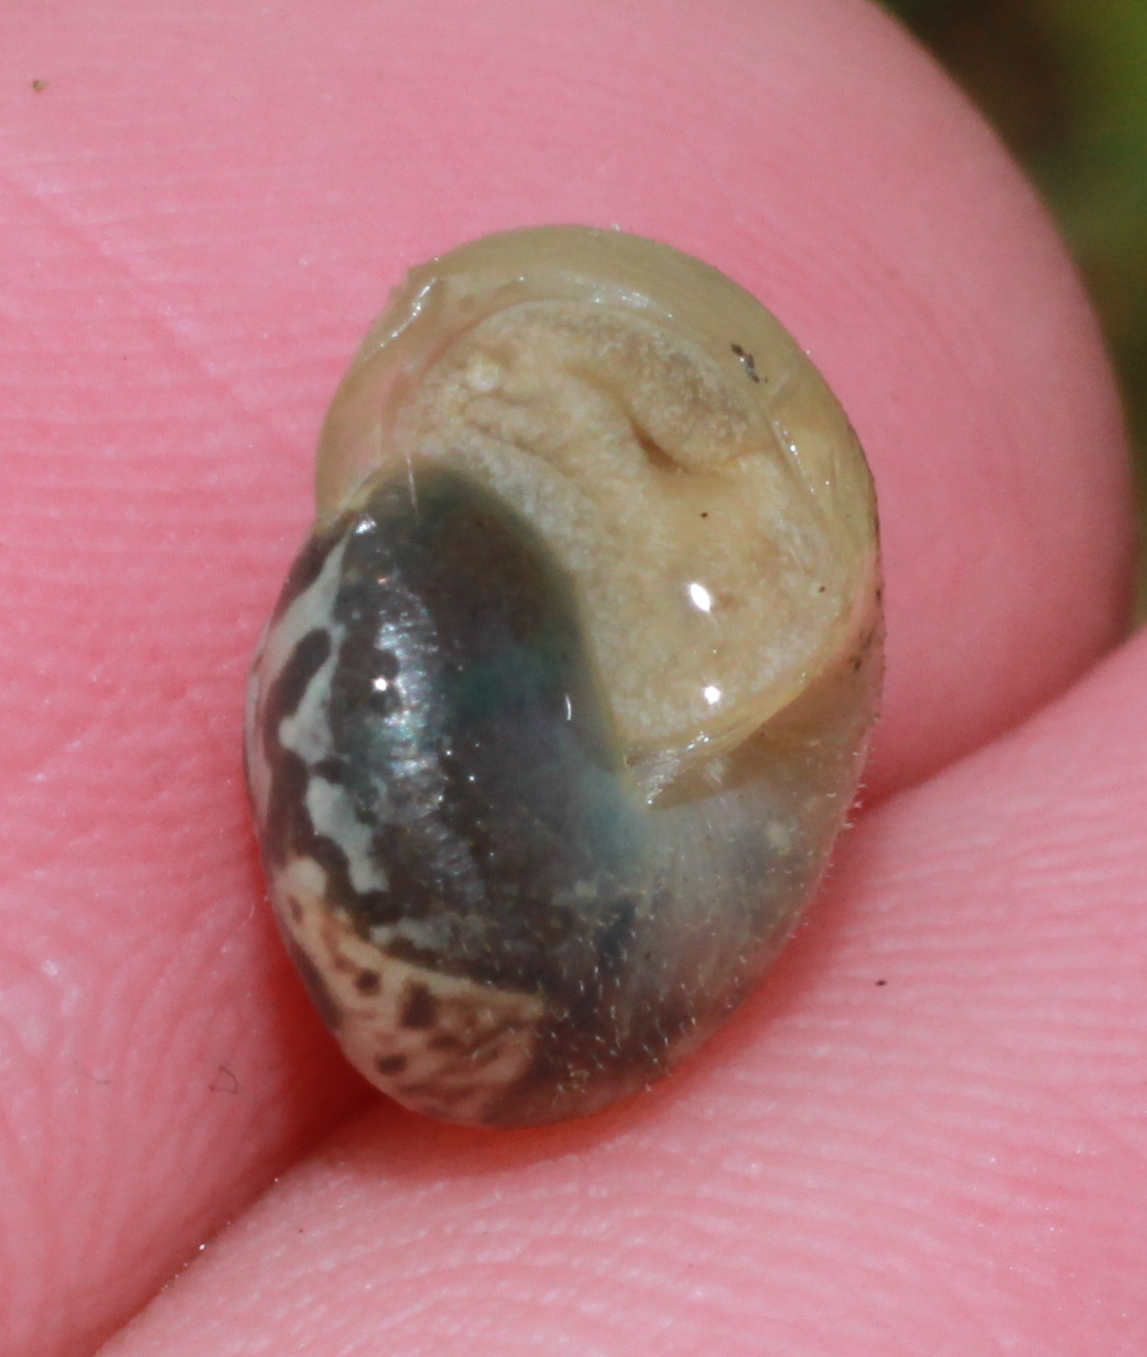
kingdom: Animalia
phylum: Mollusca
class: Gastropoda
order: Stylommatophora
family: Hygromiidae
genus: Monacha
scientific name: Monacha cantiana
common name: Kentish snail
